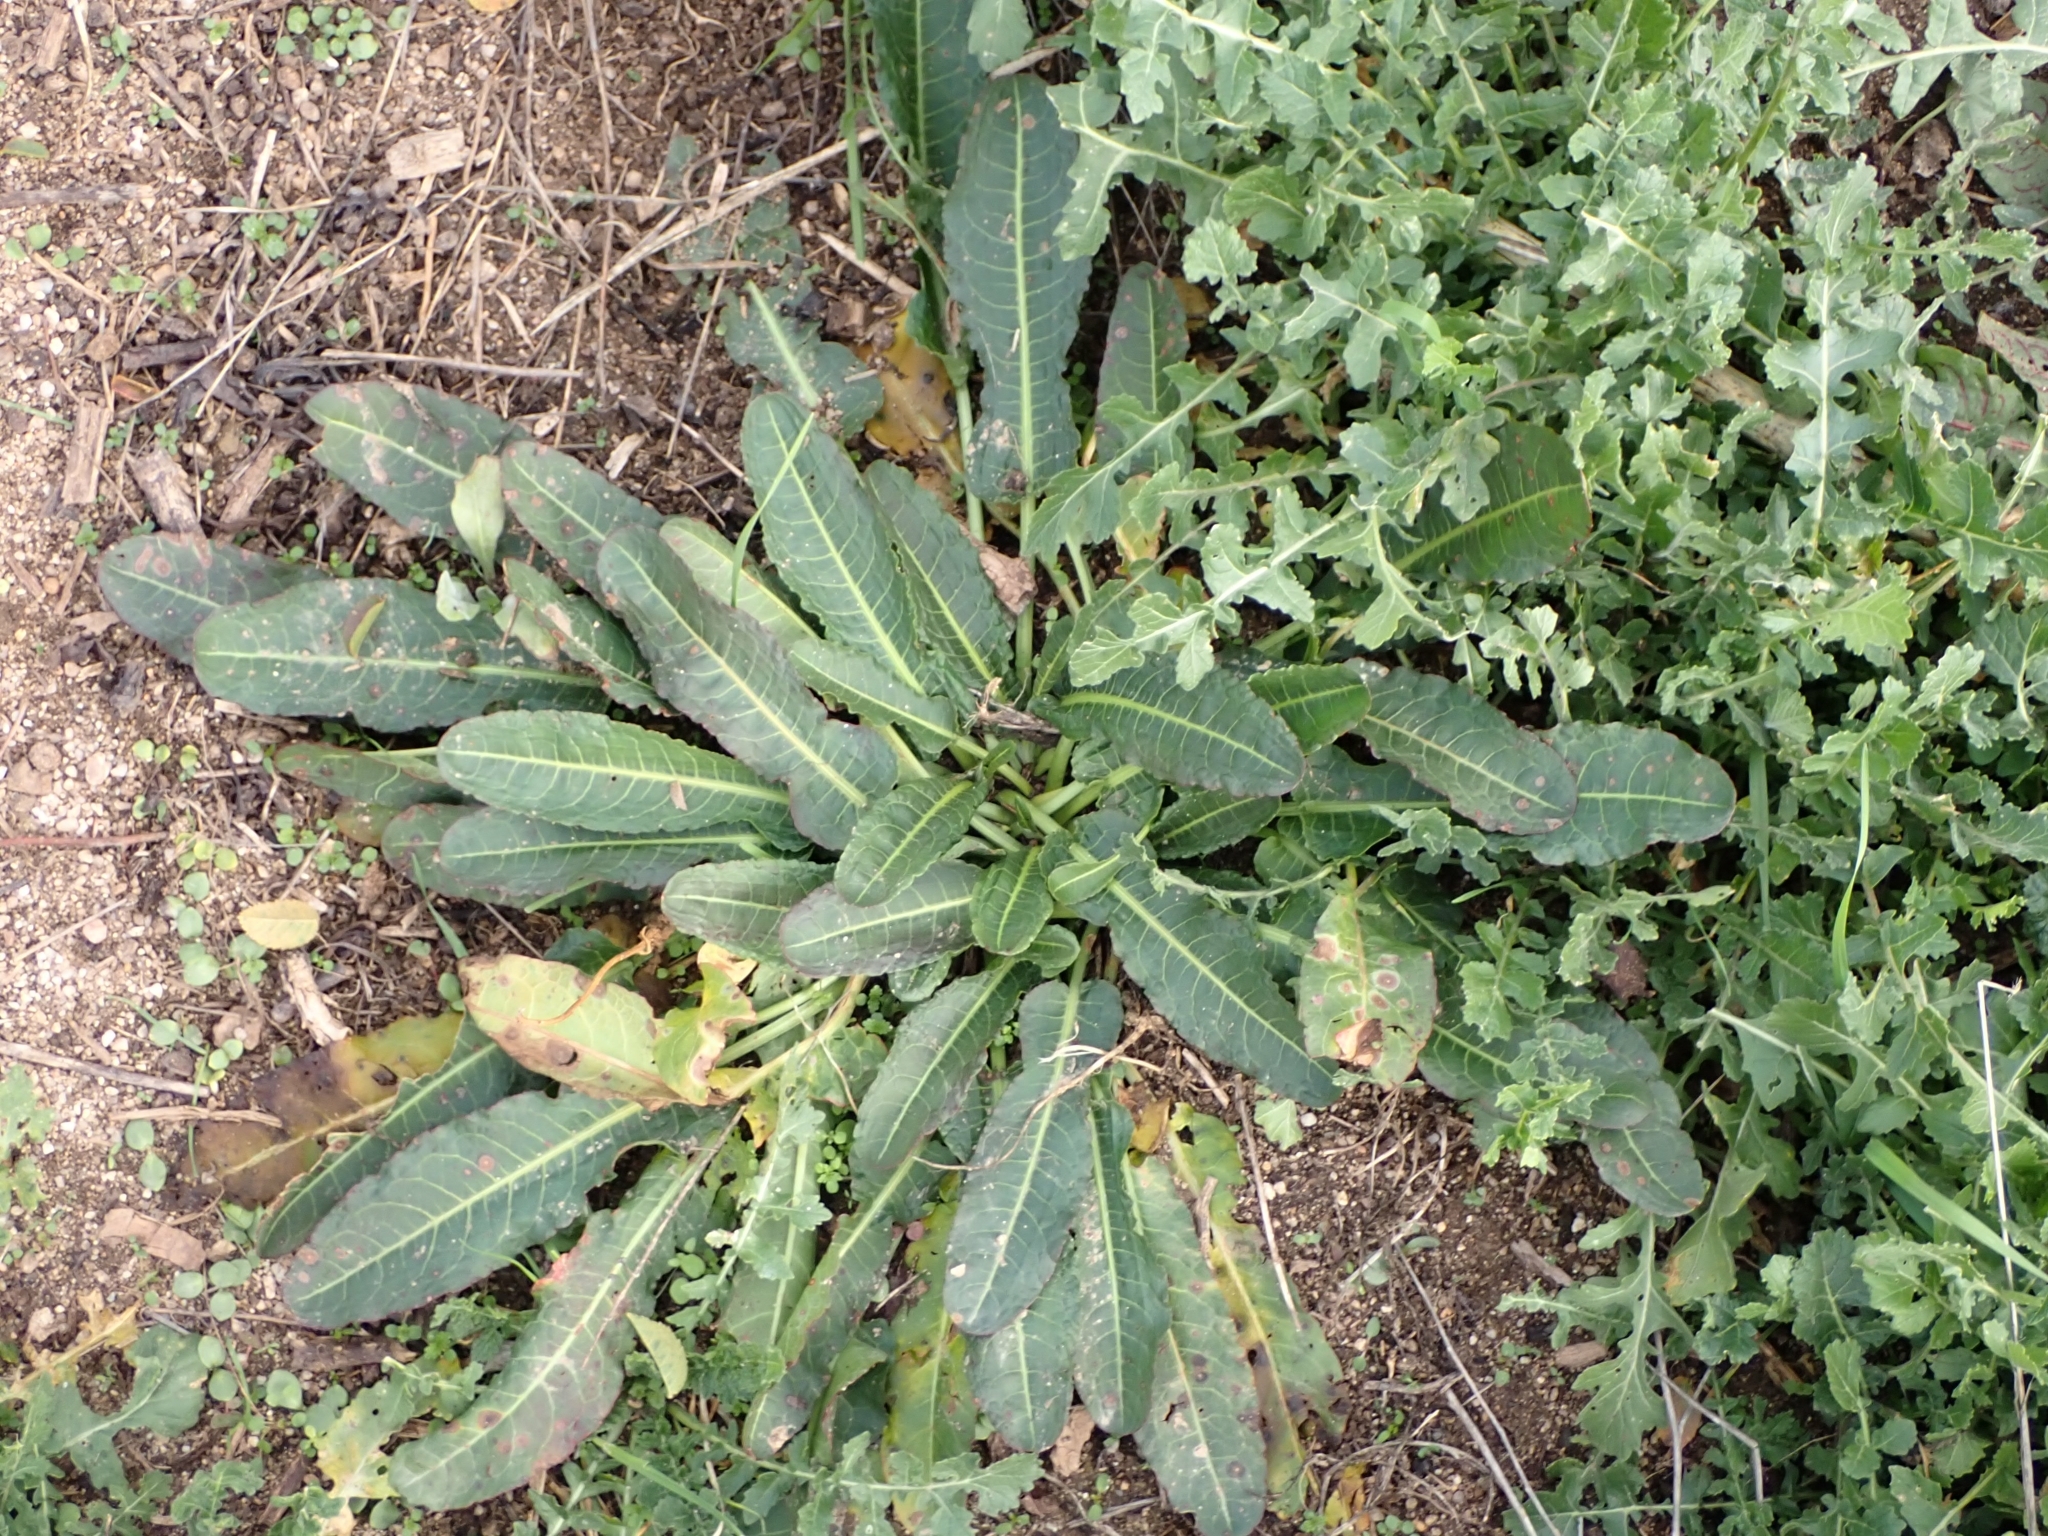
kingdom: Plantae
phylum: Tracheophyta
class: Magnoliopsida
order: Caryophyllales
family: Polygonaceae
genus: Rumex
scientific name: Rumex pulcher
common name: Fiddle dock
